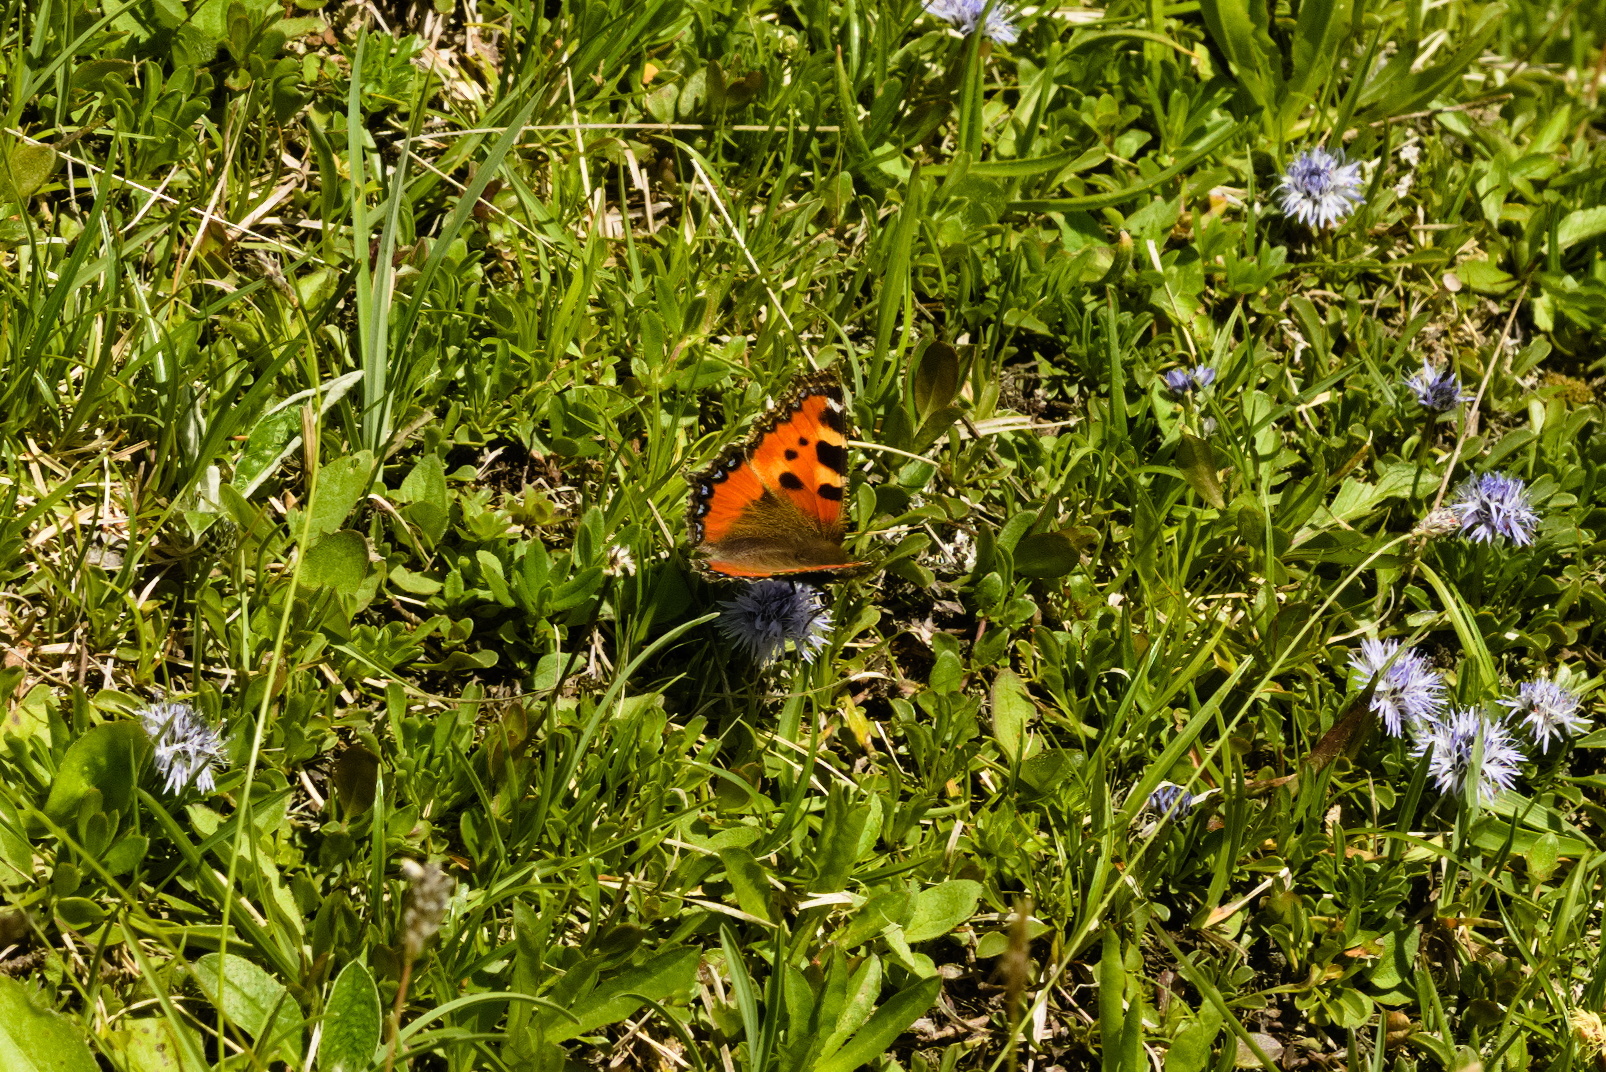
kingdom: Animalia
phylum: Arthropoda
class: Insecta
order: Lepidoptera
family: Nymphalidae
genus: Aglais
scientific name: Aglais urticae
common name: Small tortoiseshell
